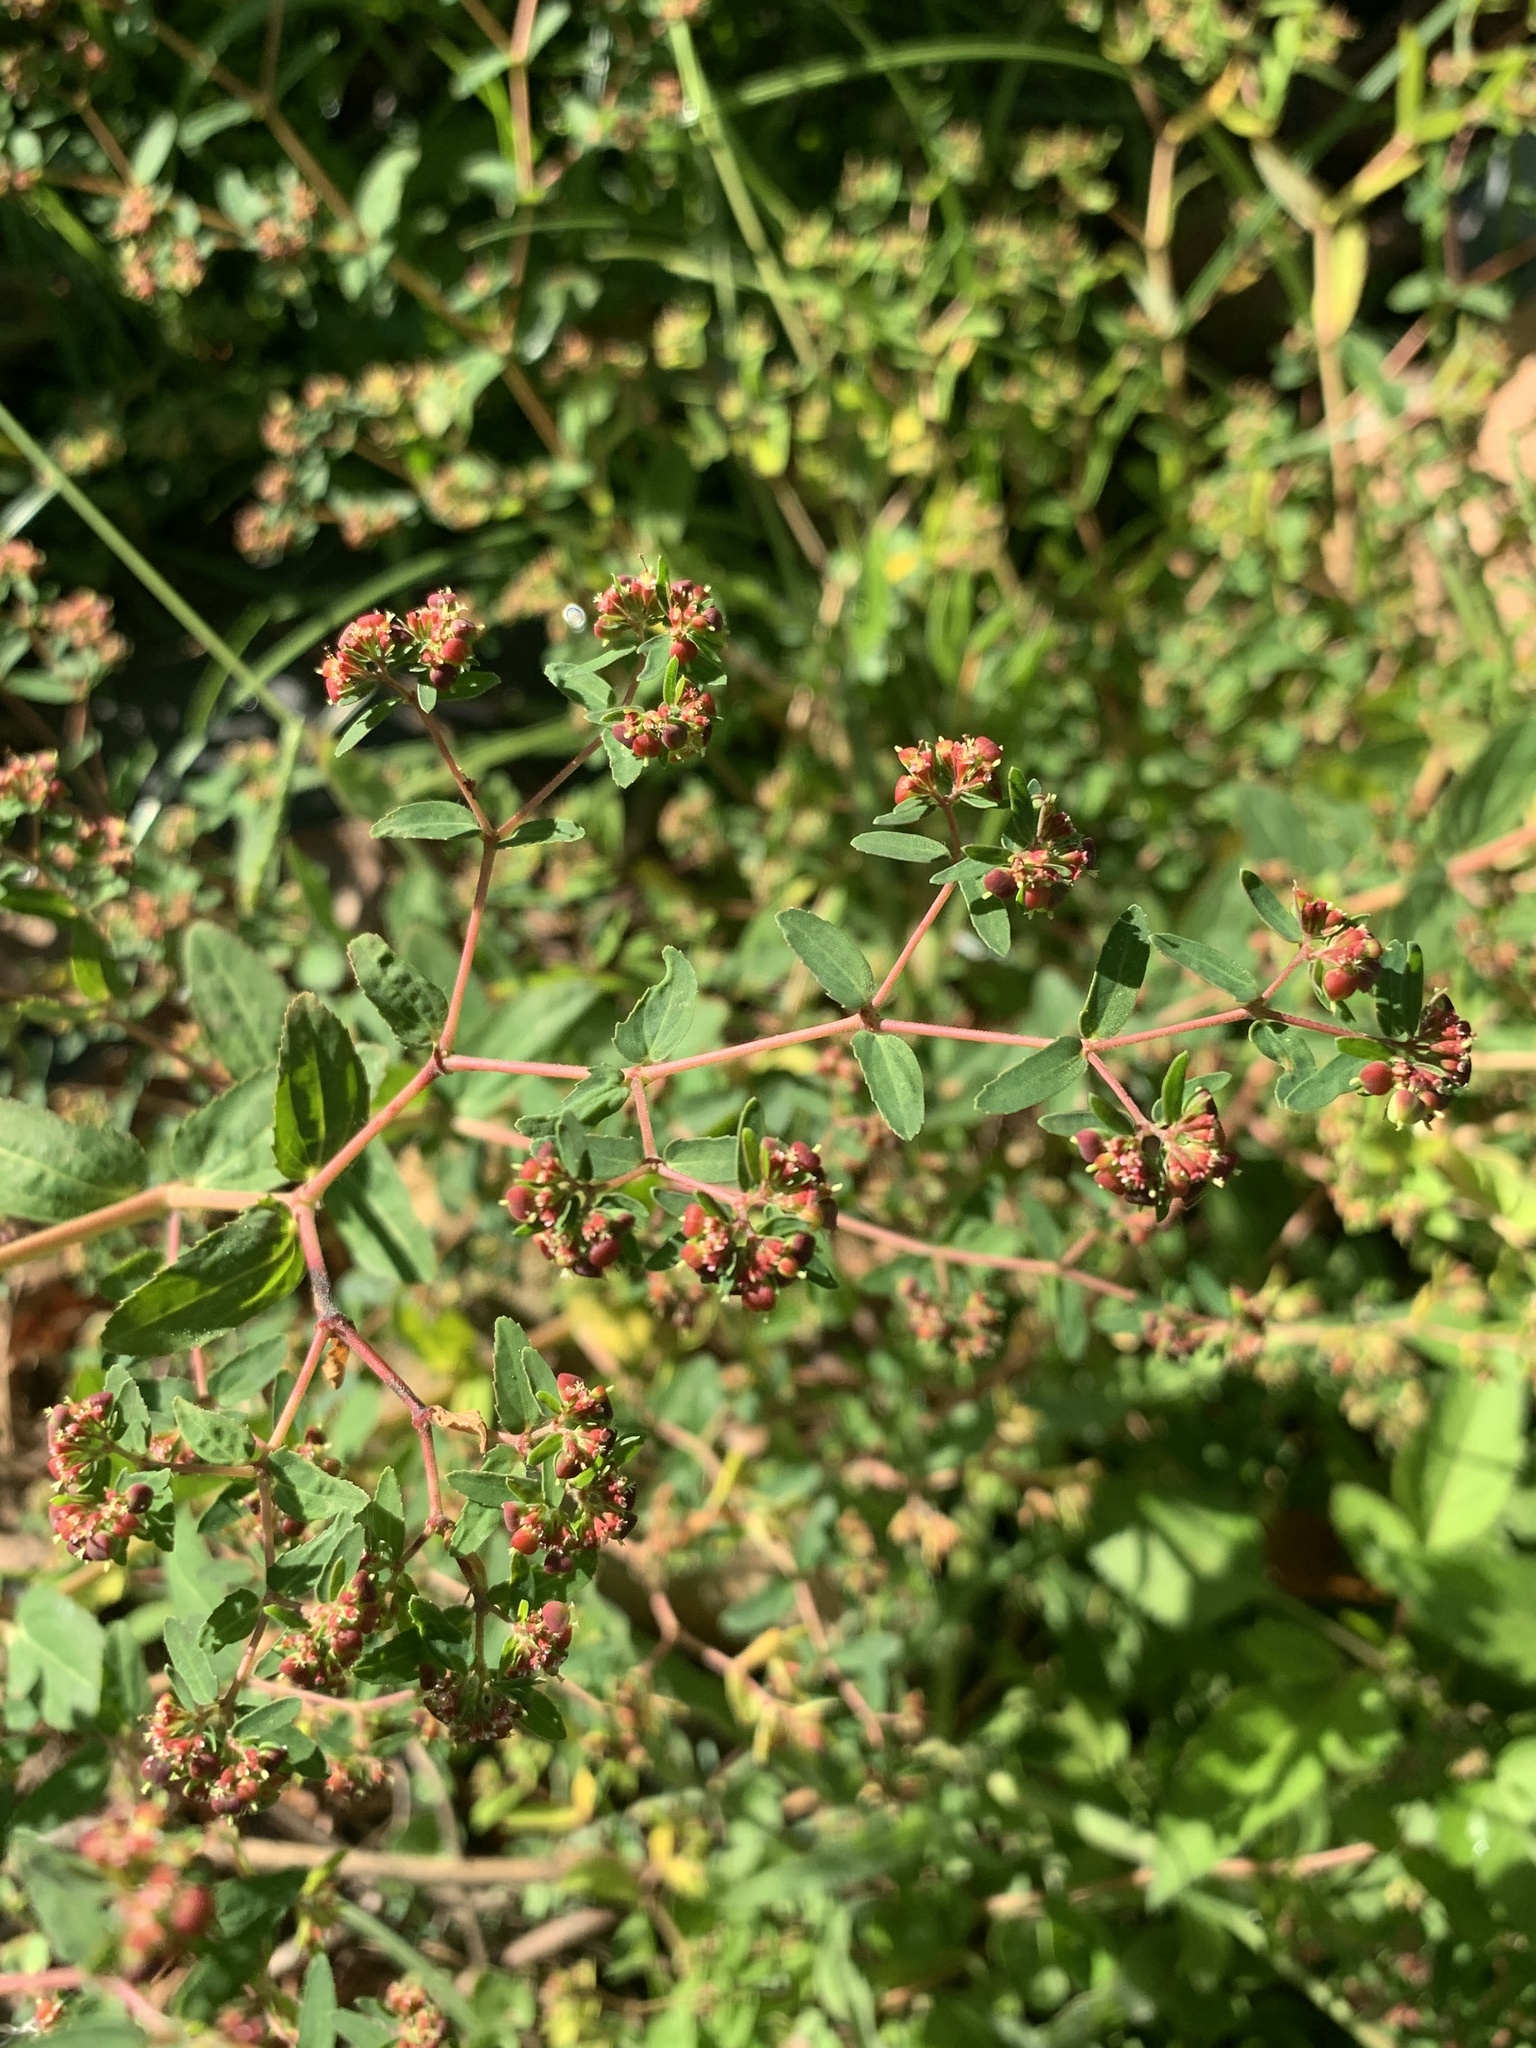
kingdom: Plantae
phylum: Tracheophyta
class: Magnoliopsida
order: Malpighiales
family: Euphorbiaceae
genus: Euphorbia
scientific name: Euphorbia nutans
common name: Eyebane
